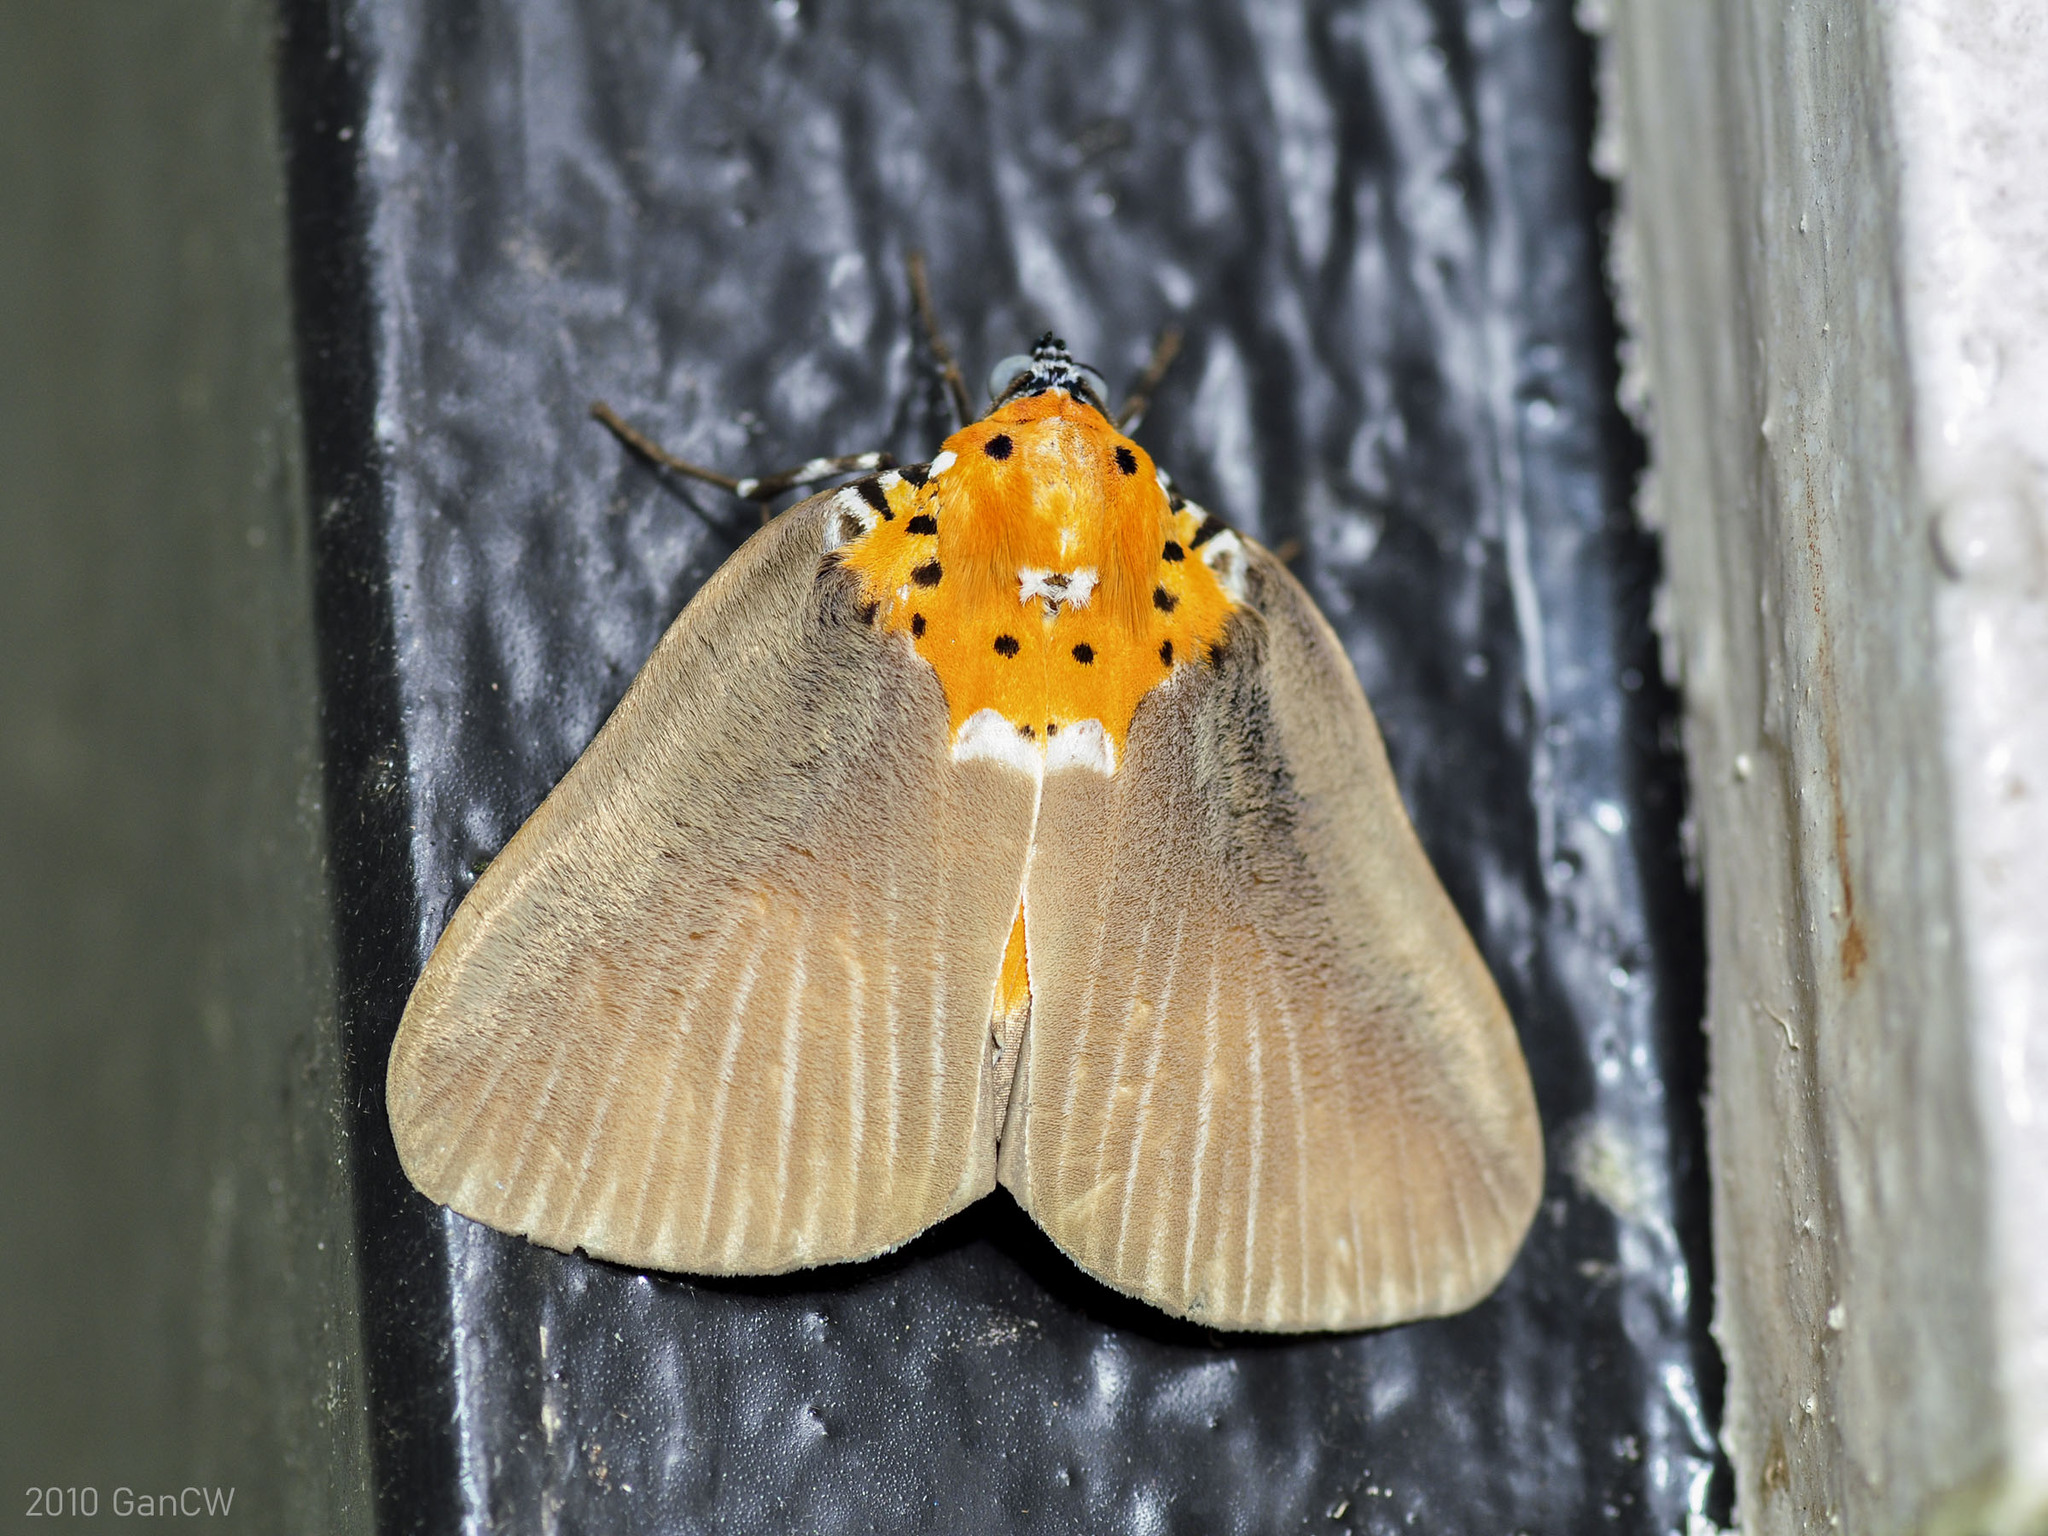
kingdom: Animalia
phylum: Arthropoda
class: Insecta
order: Lepidoptera
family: Erebidae
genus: Peridrome
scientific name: Peridrome orbicularis
